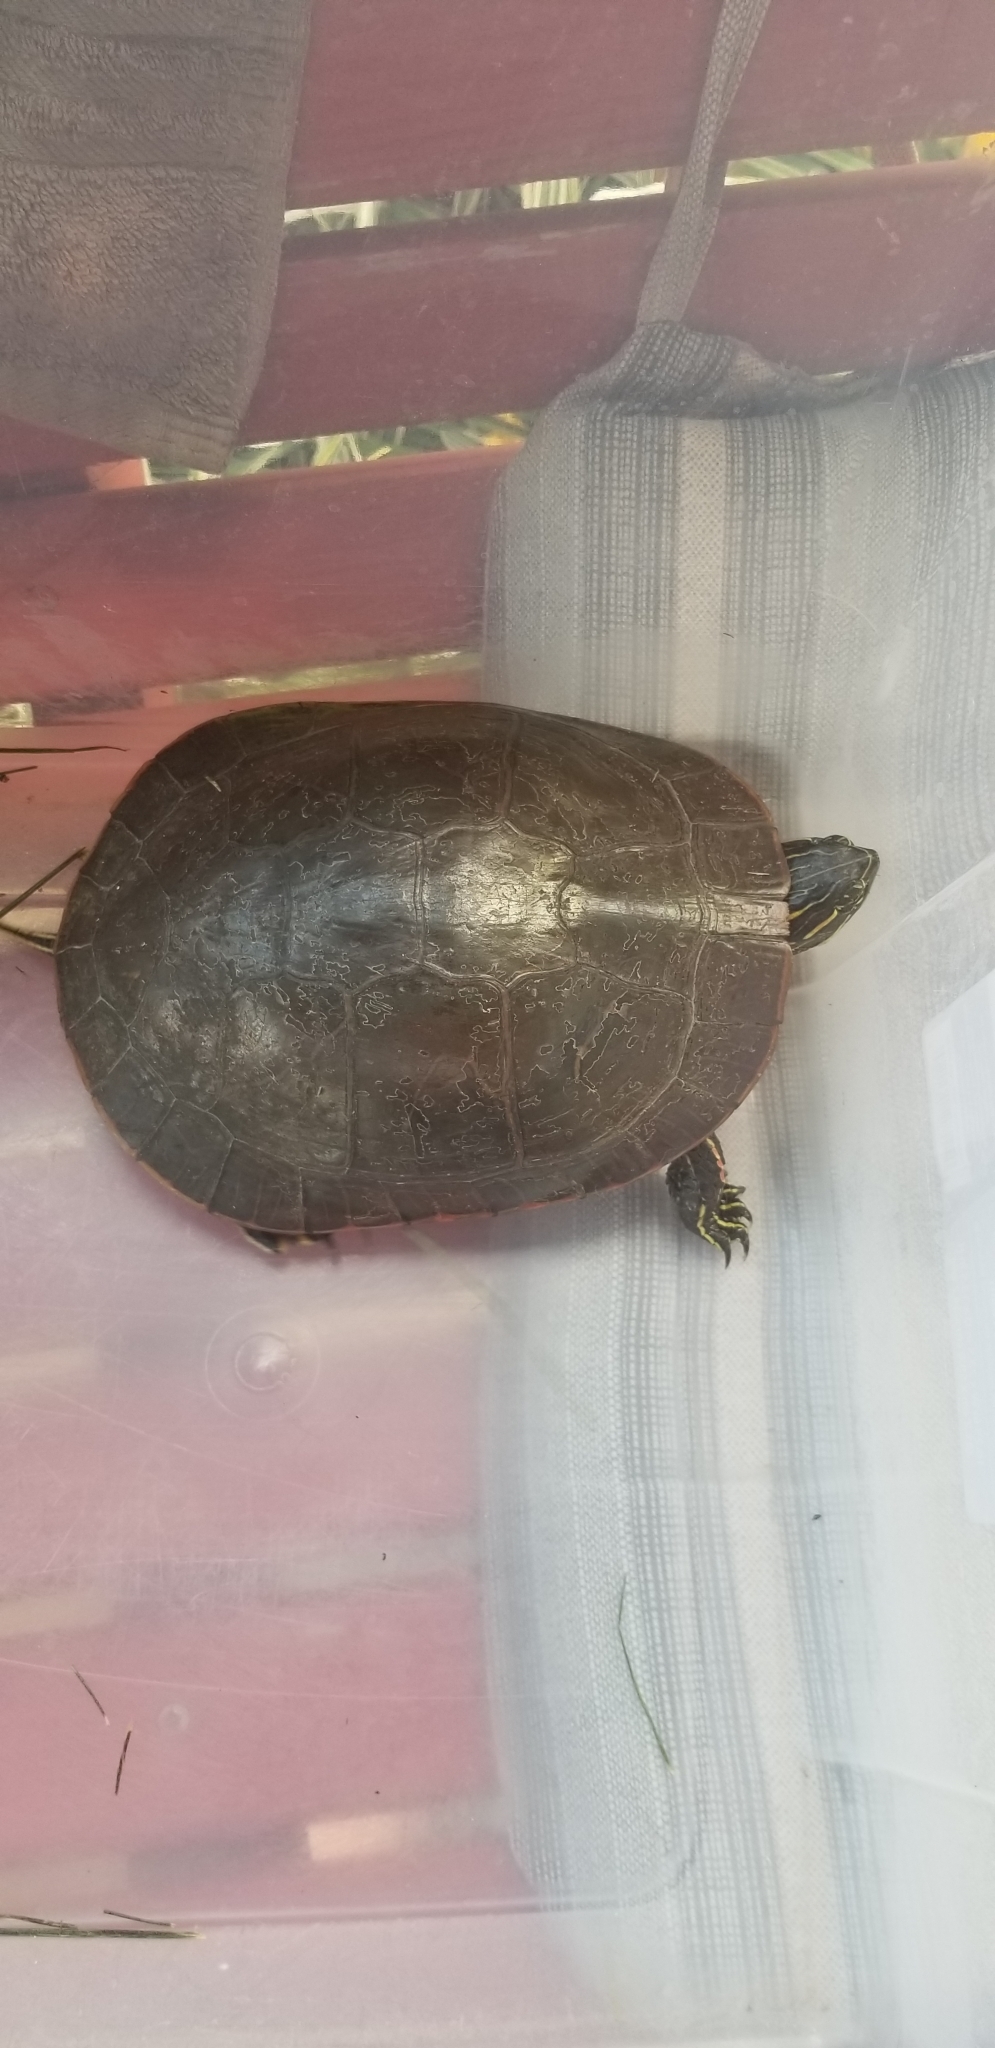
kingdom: Animalia
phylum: Chordata
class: Testudines
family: Emydidae
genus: Chrysemys
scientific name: Chrysemys picta
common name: Painted turtle
